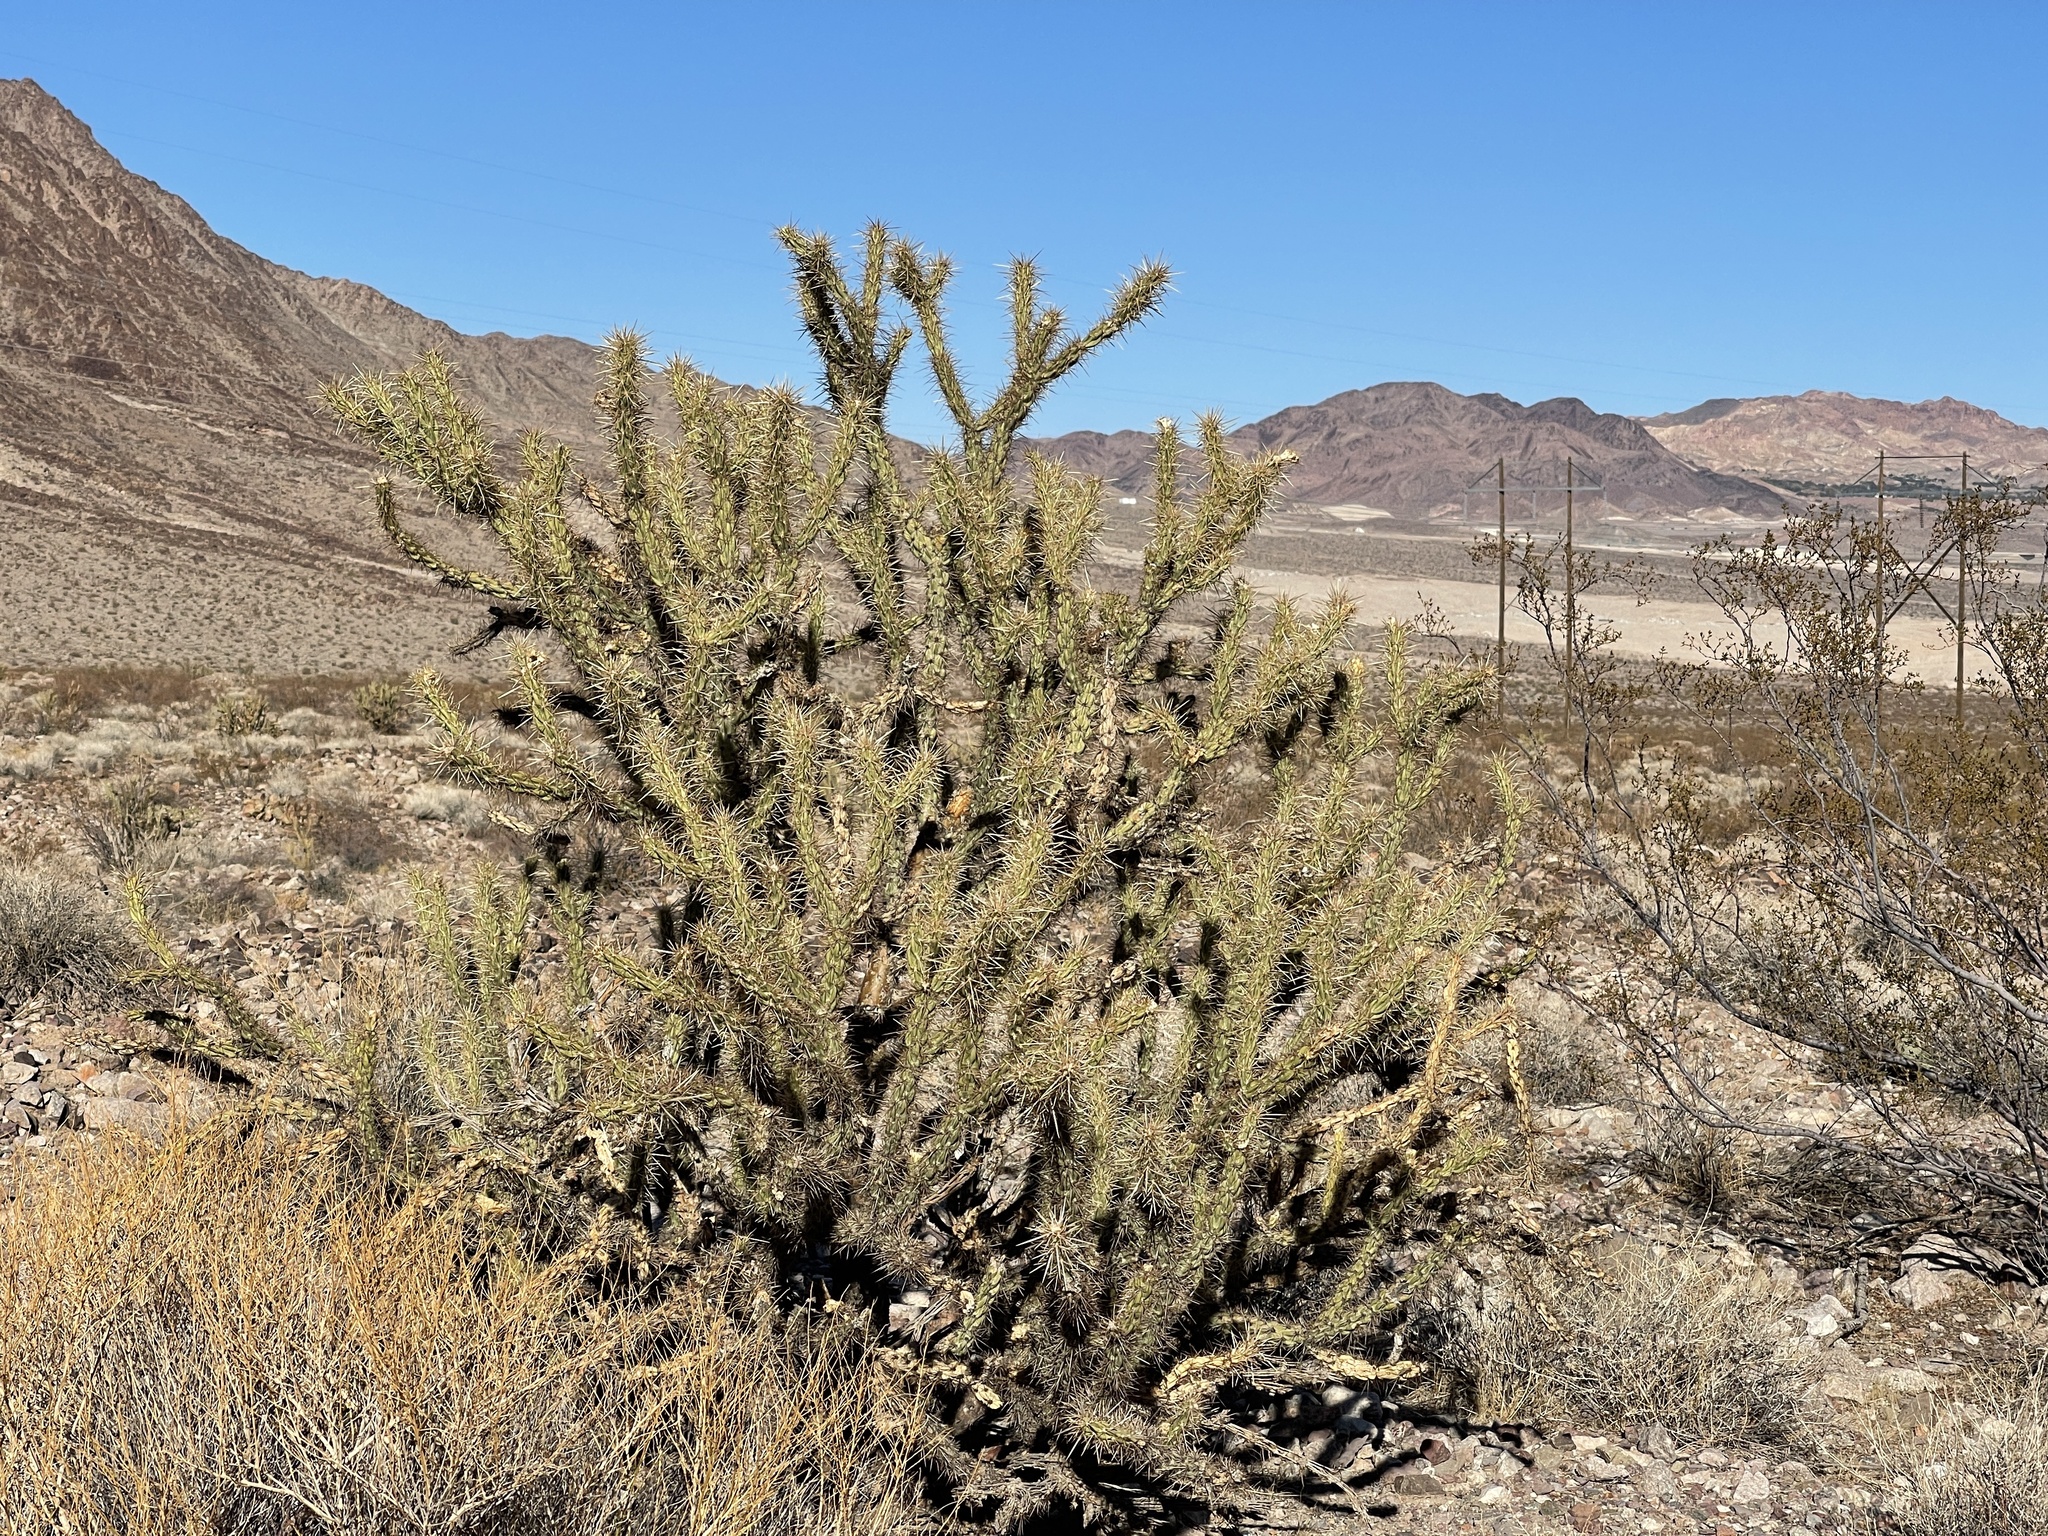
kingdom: Plantae
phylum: Tracheophyta
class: Magnoliopsida
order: Caryophyllales
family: Cactaceae
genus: Cylindropuntia
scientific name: Cylindropuntia acanthocarpa
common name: Buckhorn cholla
